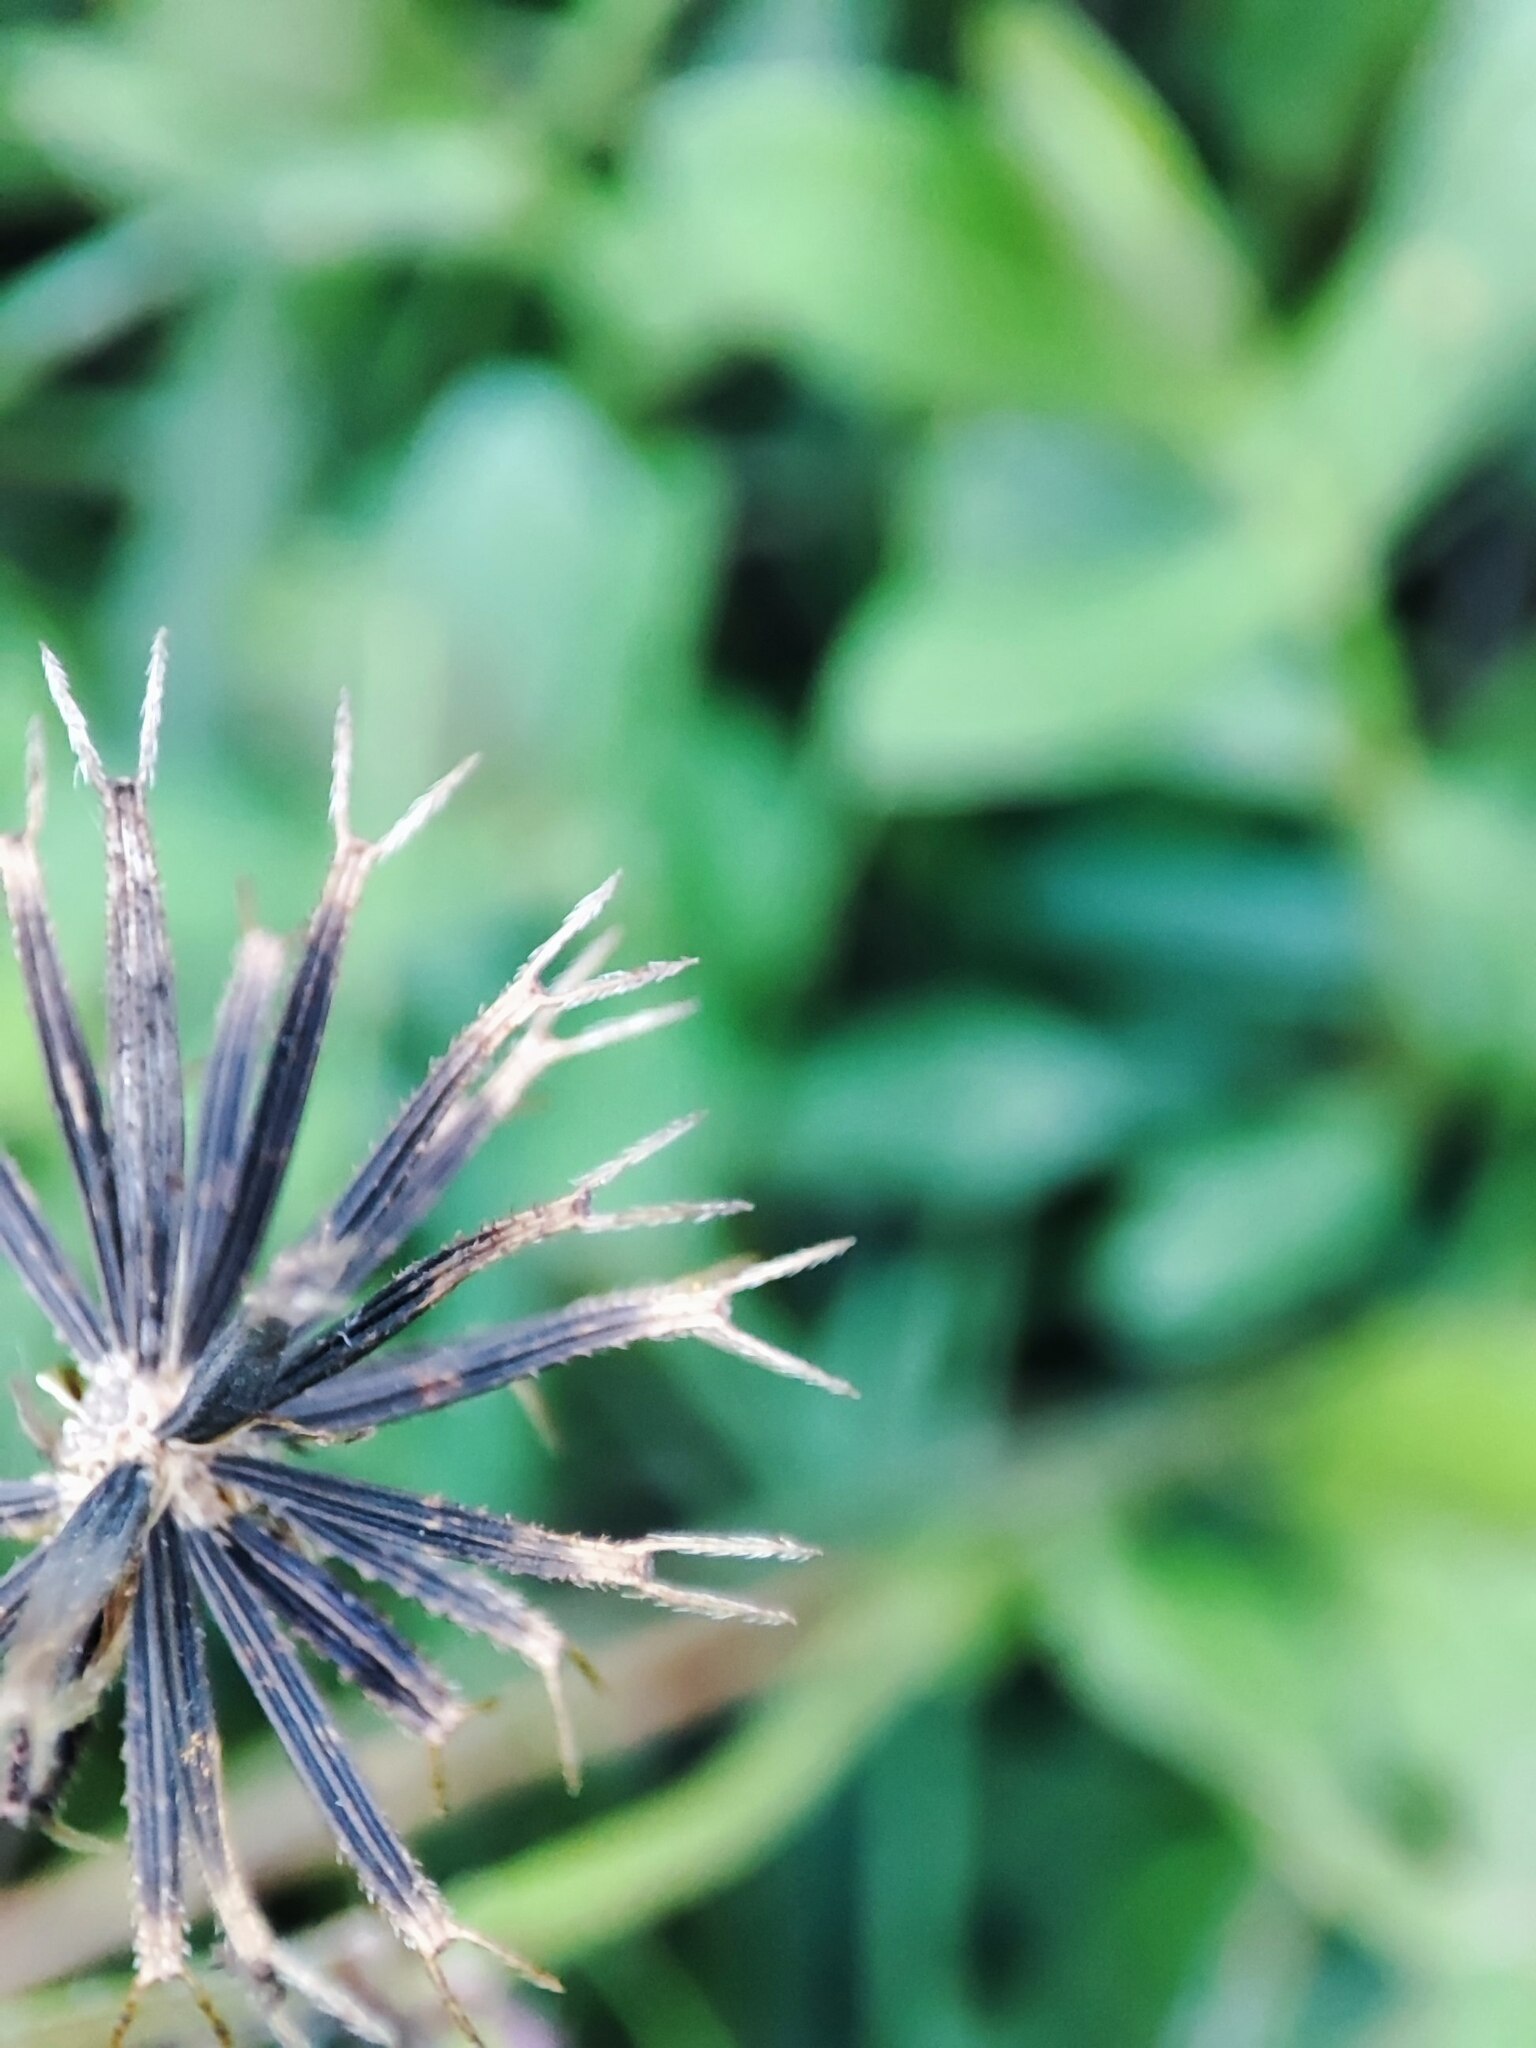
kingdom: Plantae
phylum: Tracheophyta
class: Magnoliopsida
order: Asterales
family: Asteraceae
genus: Bidens
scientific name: Bidens alba
